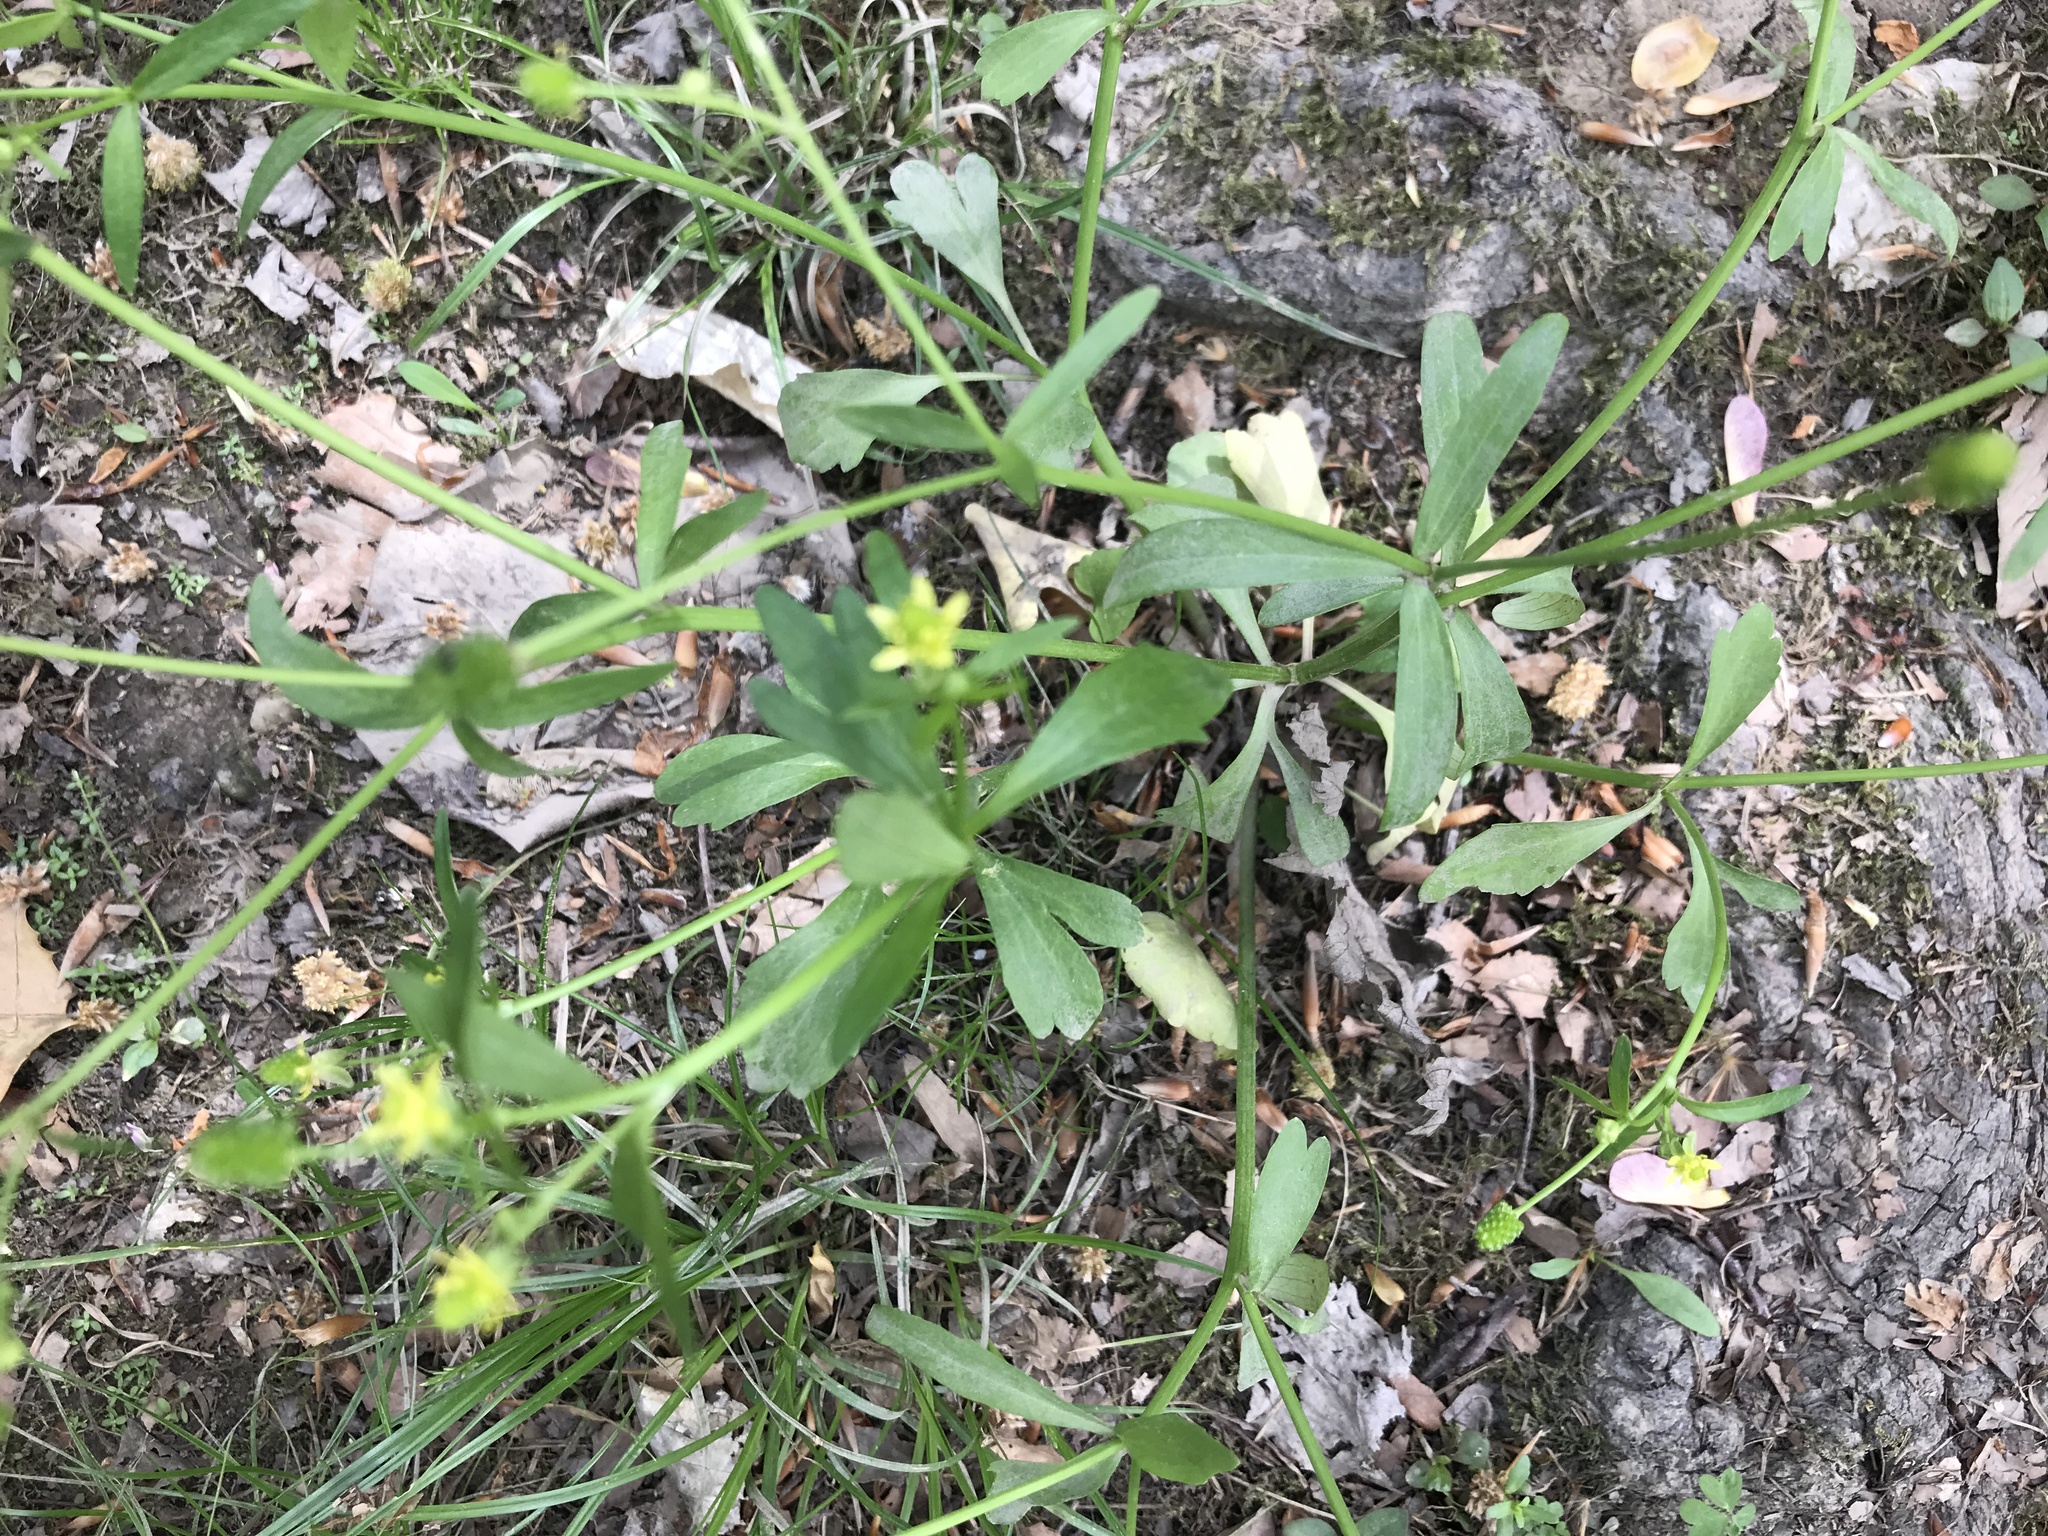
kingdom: Plantae
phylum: Tracheophyta
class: Magnoliopsida
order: Ranunculales
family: Ranunculaceae
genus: Ranunculus
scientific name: Ranunculus abortivus
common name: Early wood buttercup
